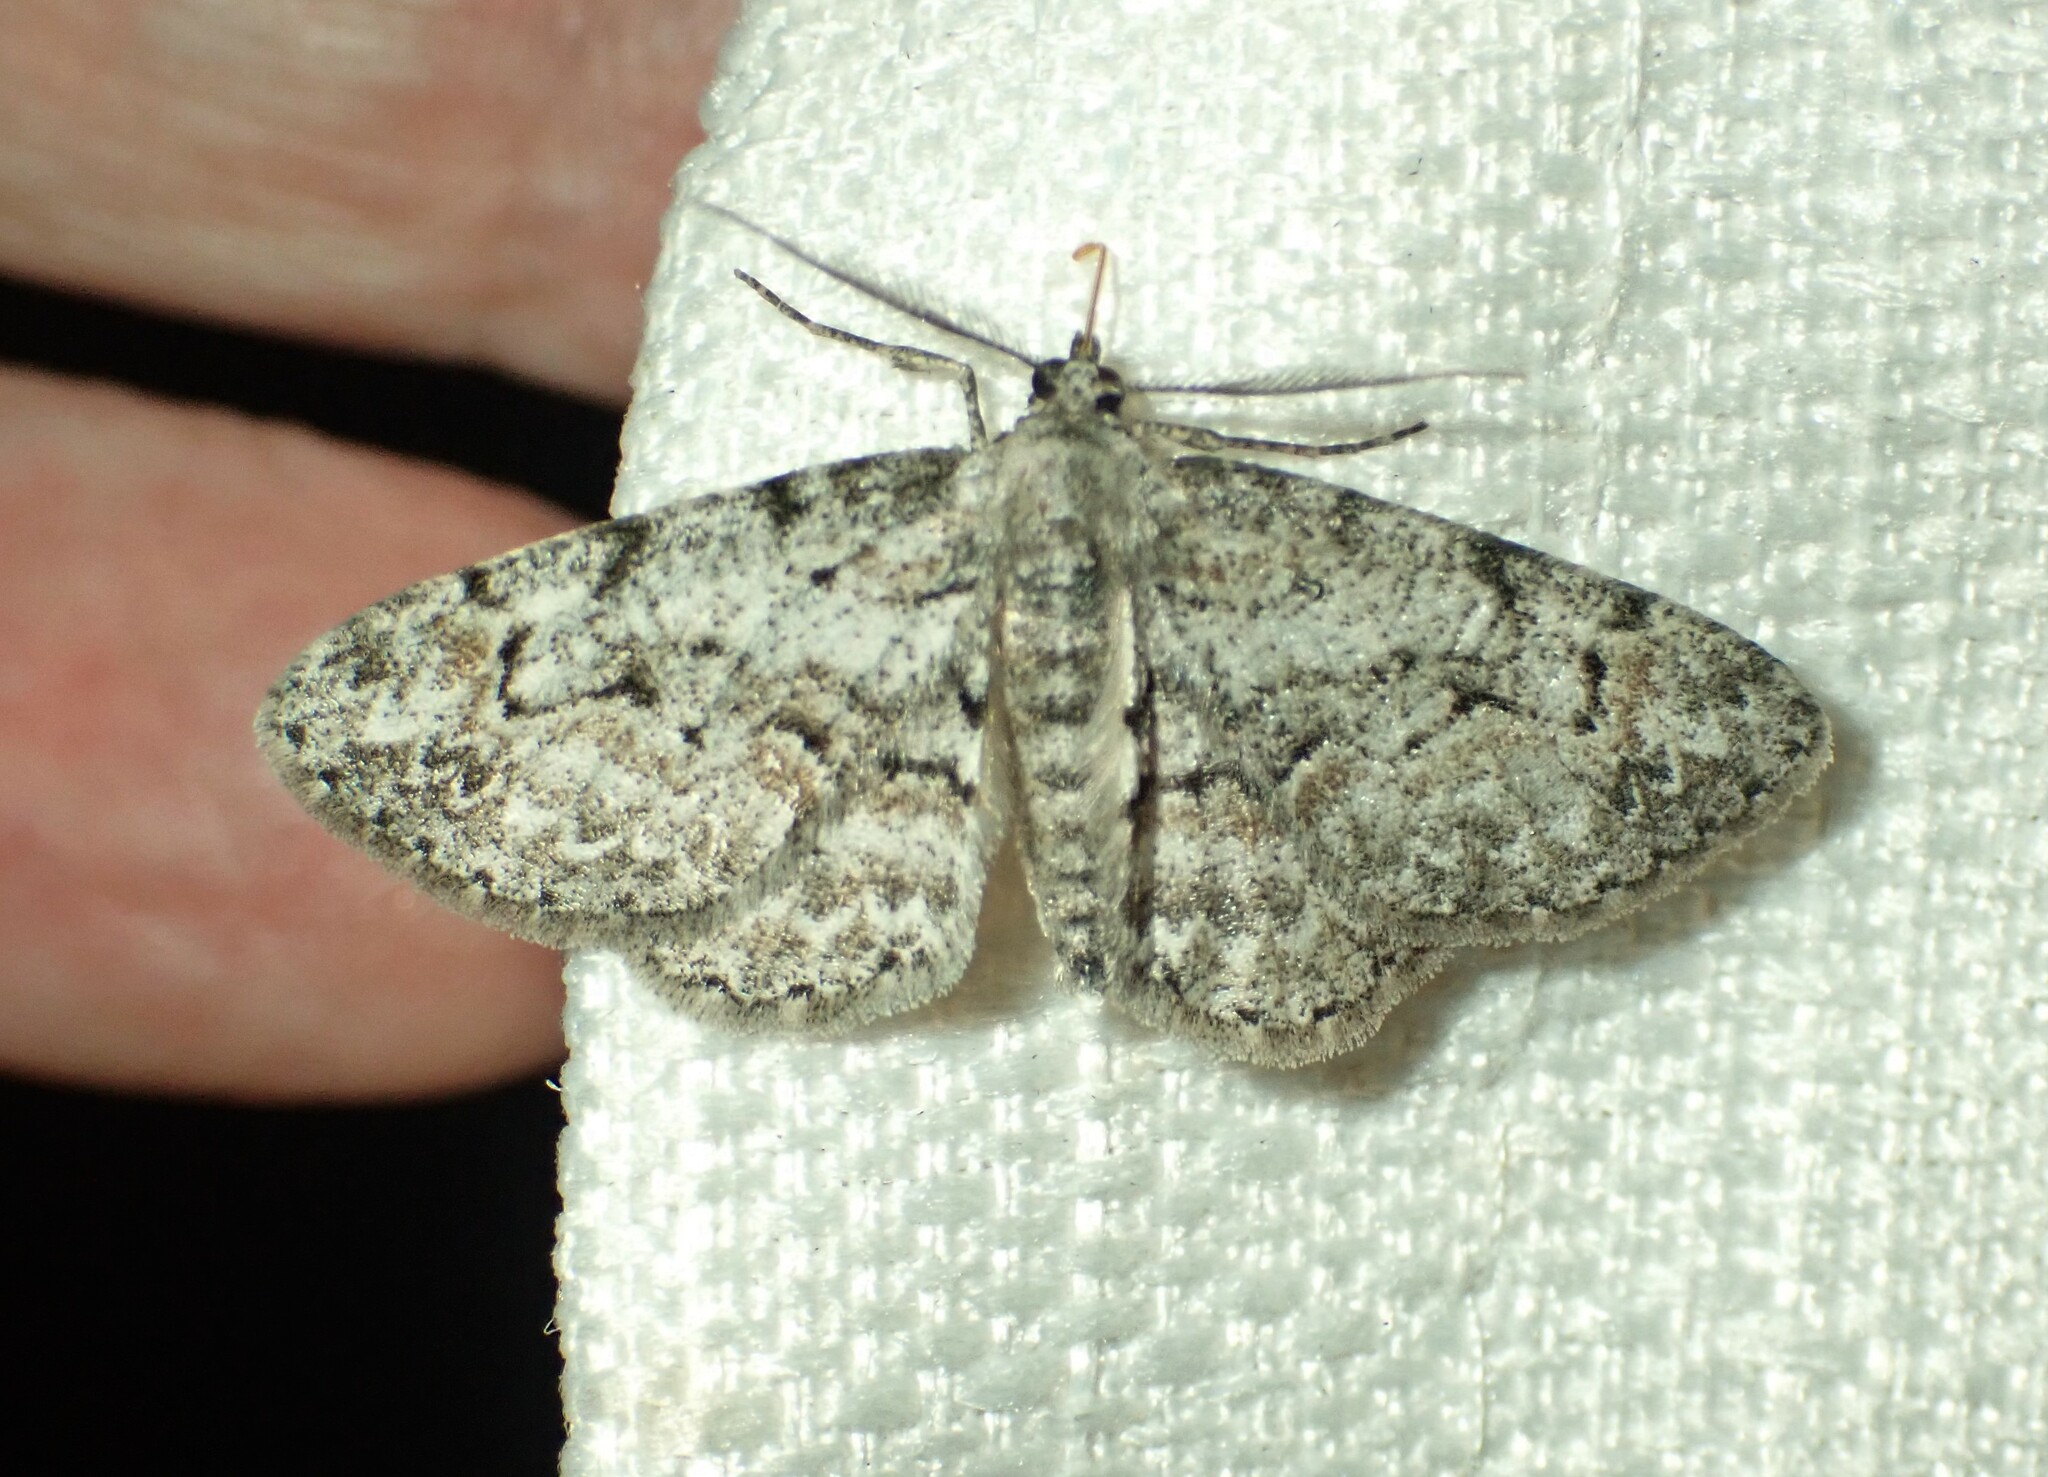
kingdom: Animalia
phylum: Arthropoda
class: Insecta
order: Lepidoptera
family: Geometridae
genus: Iridopsis
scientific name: Iridopsis ephyraria
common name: Pale-winged gray
